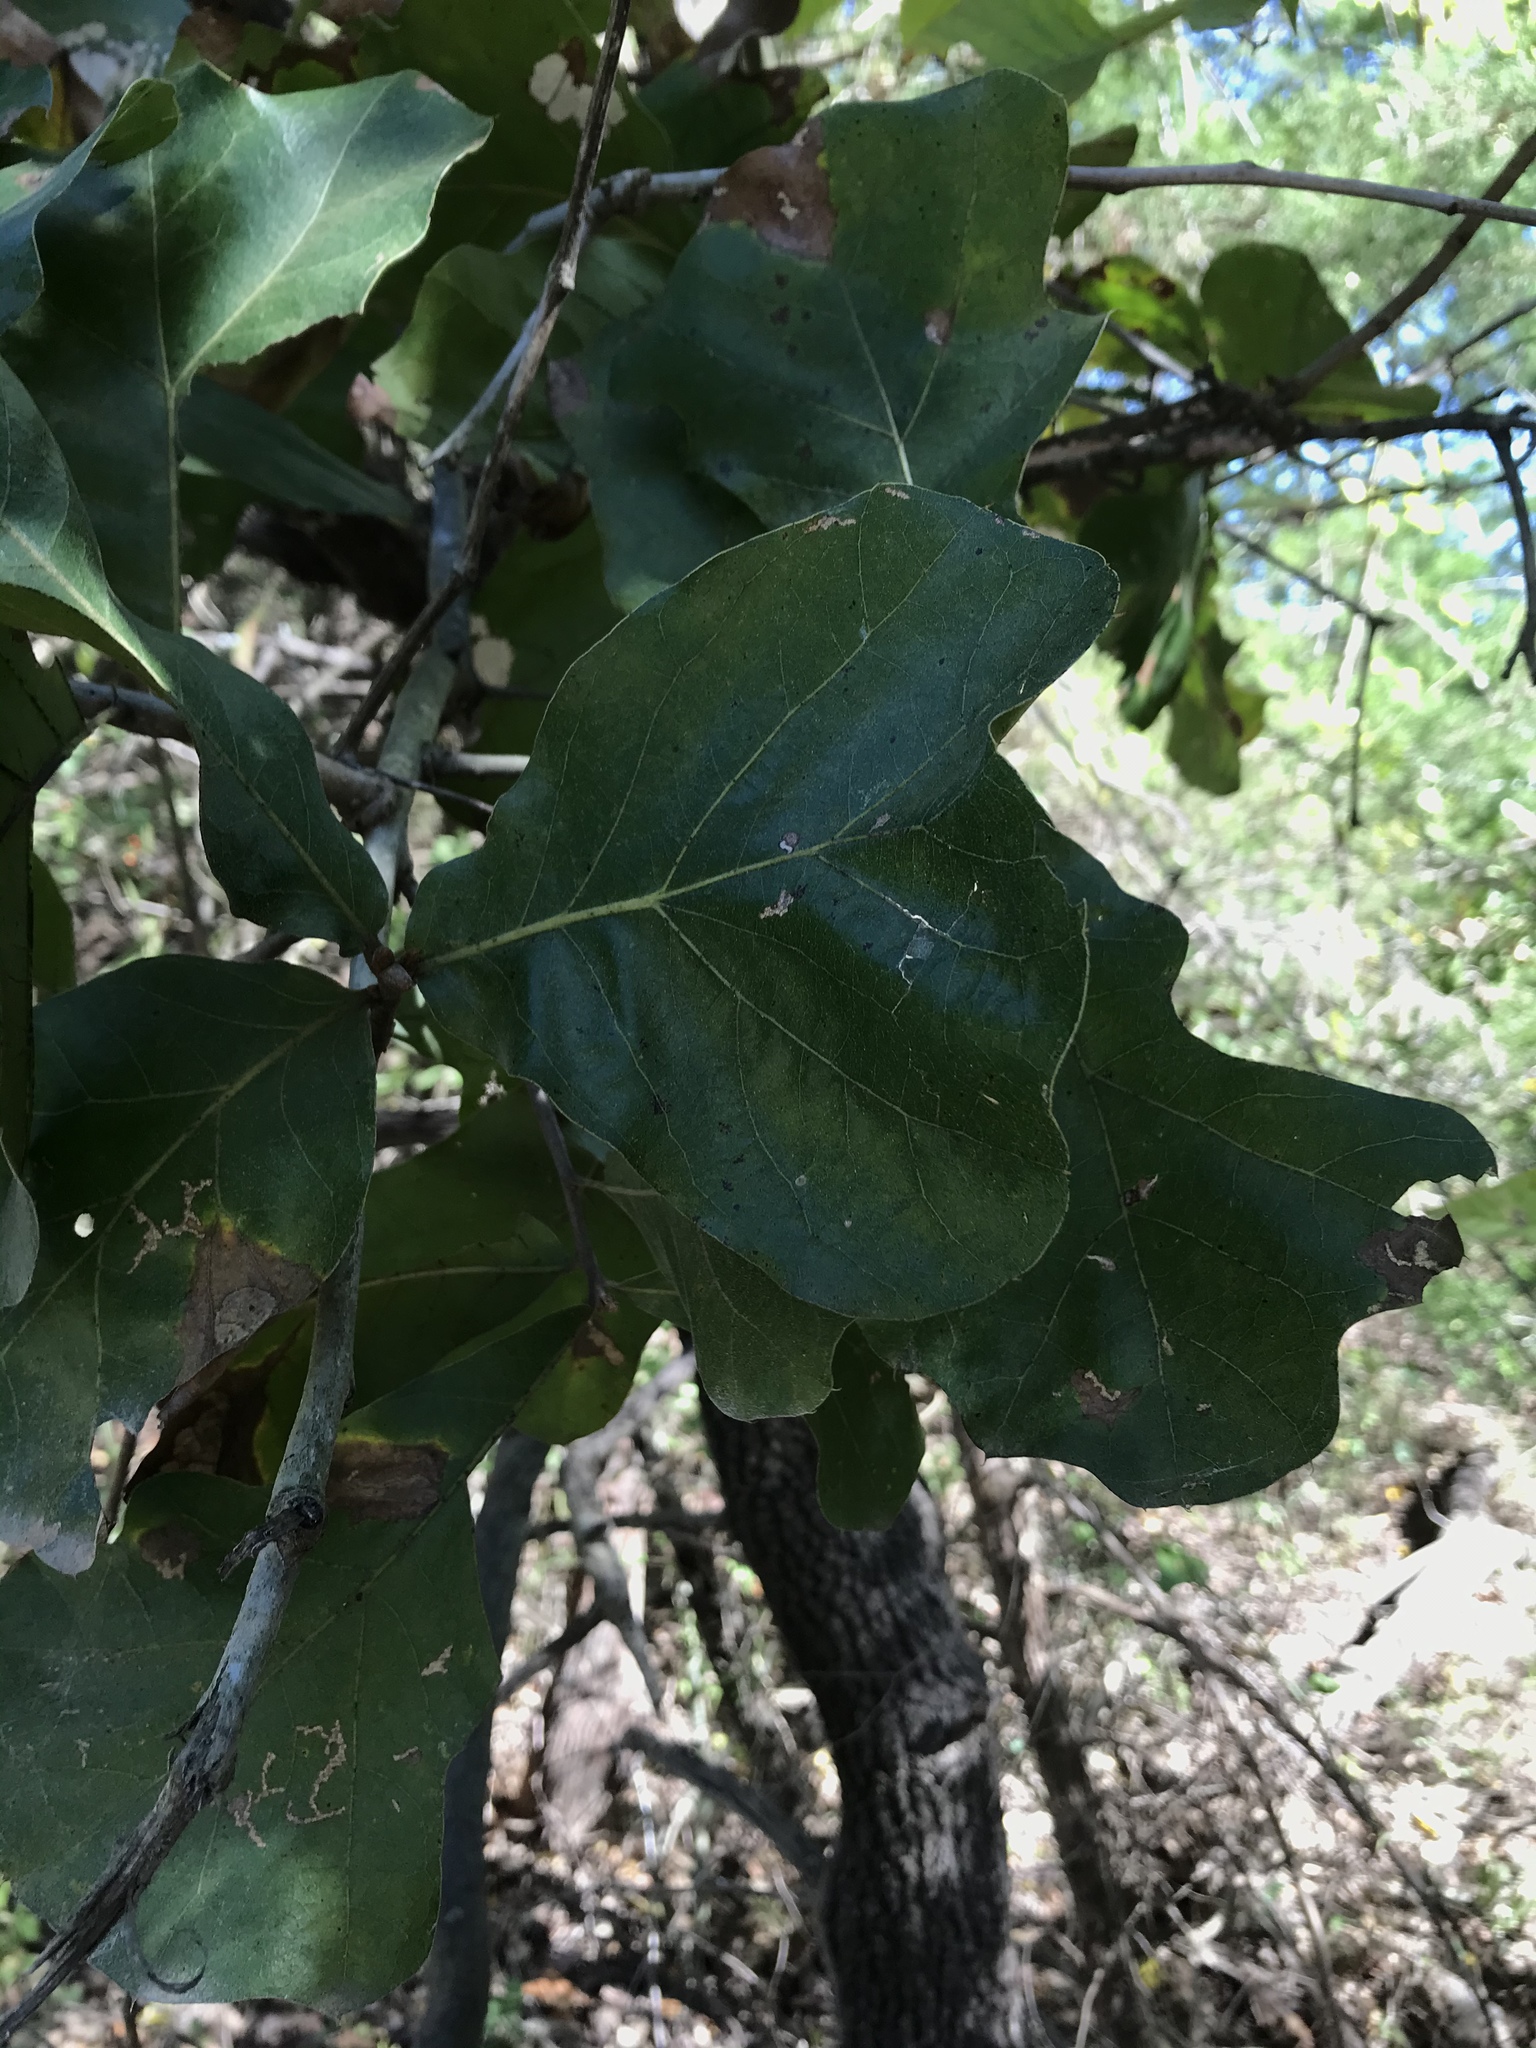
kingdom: Plantae
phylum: Tracheophyta
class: Magnoliopsida
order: Fagales
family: Fagaceae
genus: Quercus
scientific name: Quercus marilandica
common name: Blackjack oak
